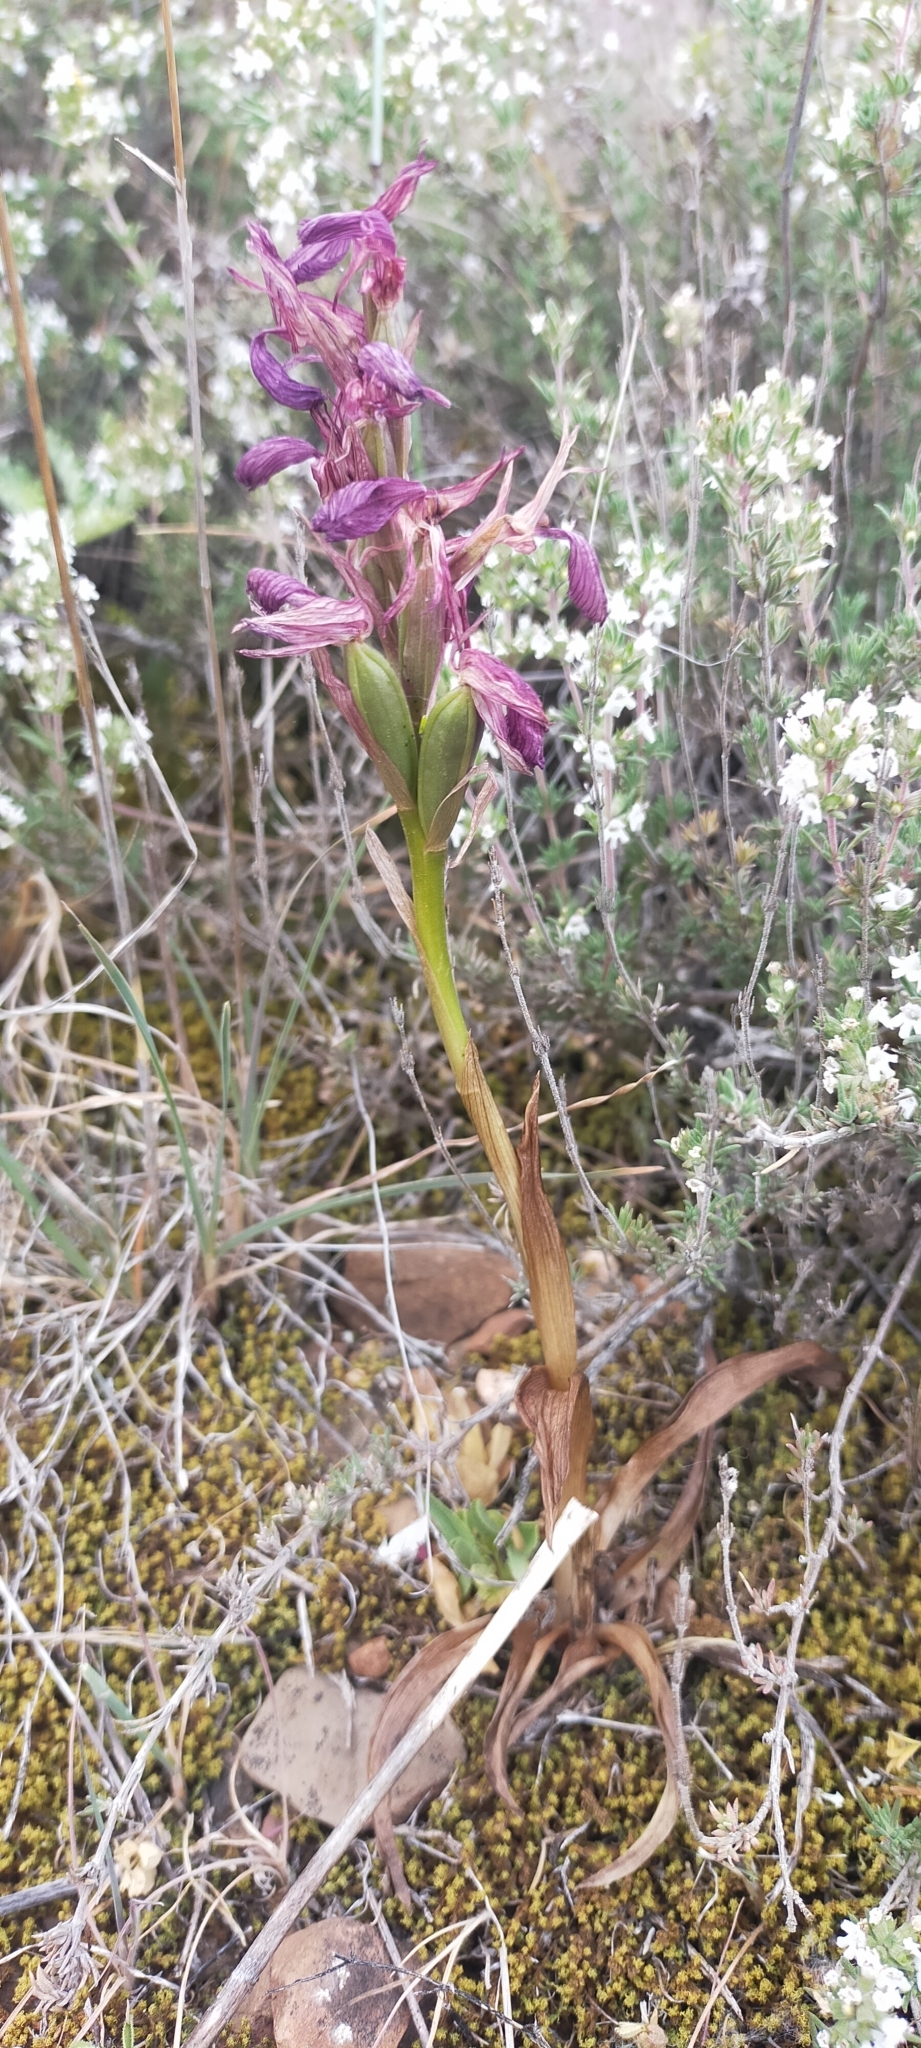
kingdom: Plantae
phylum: Tracheophyta
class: Liliopsida
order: Asparagales
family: Orchidaceae
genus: Anacamptis
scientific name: Anacamptis papilionacea
